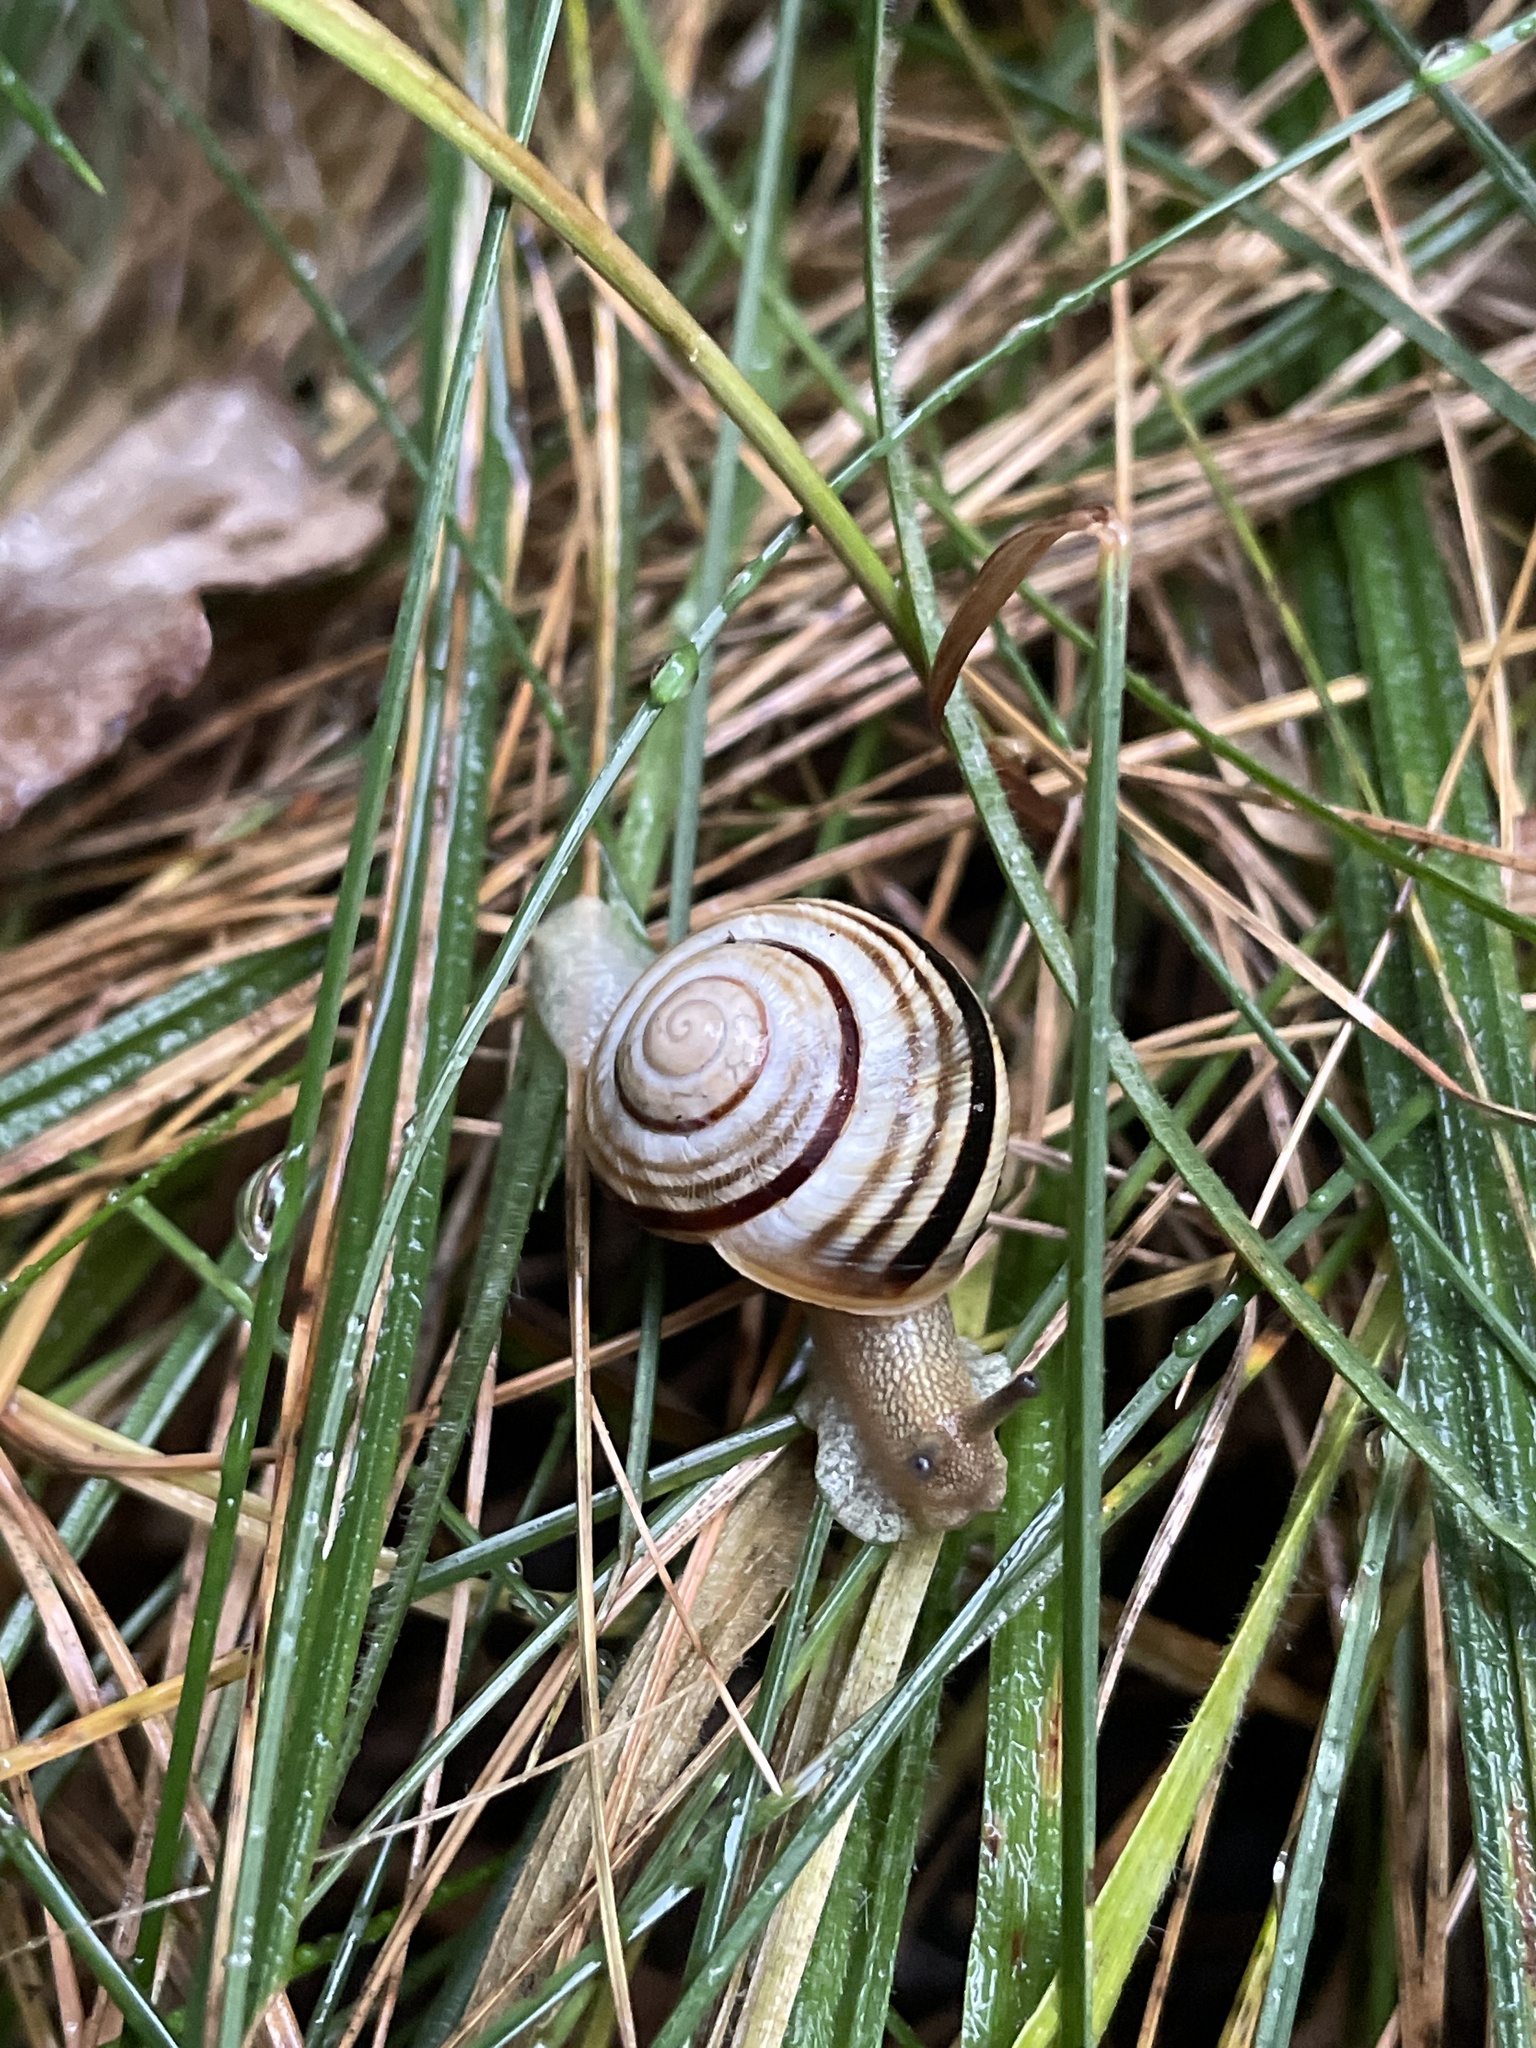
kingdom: Animalia
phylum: Mollusca
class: Gastropoda
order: Stylommatophora
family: Helicidae
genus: Caucasotachea
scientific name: Caucasotachea vindobonensis
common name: European helicid land snail
